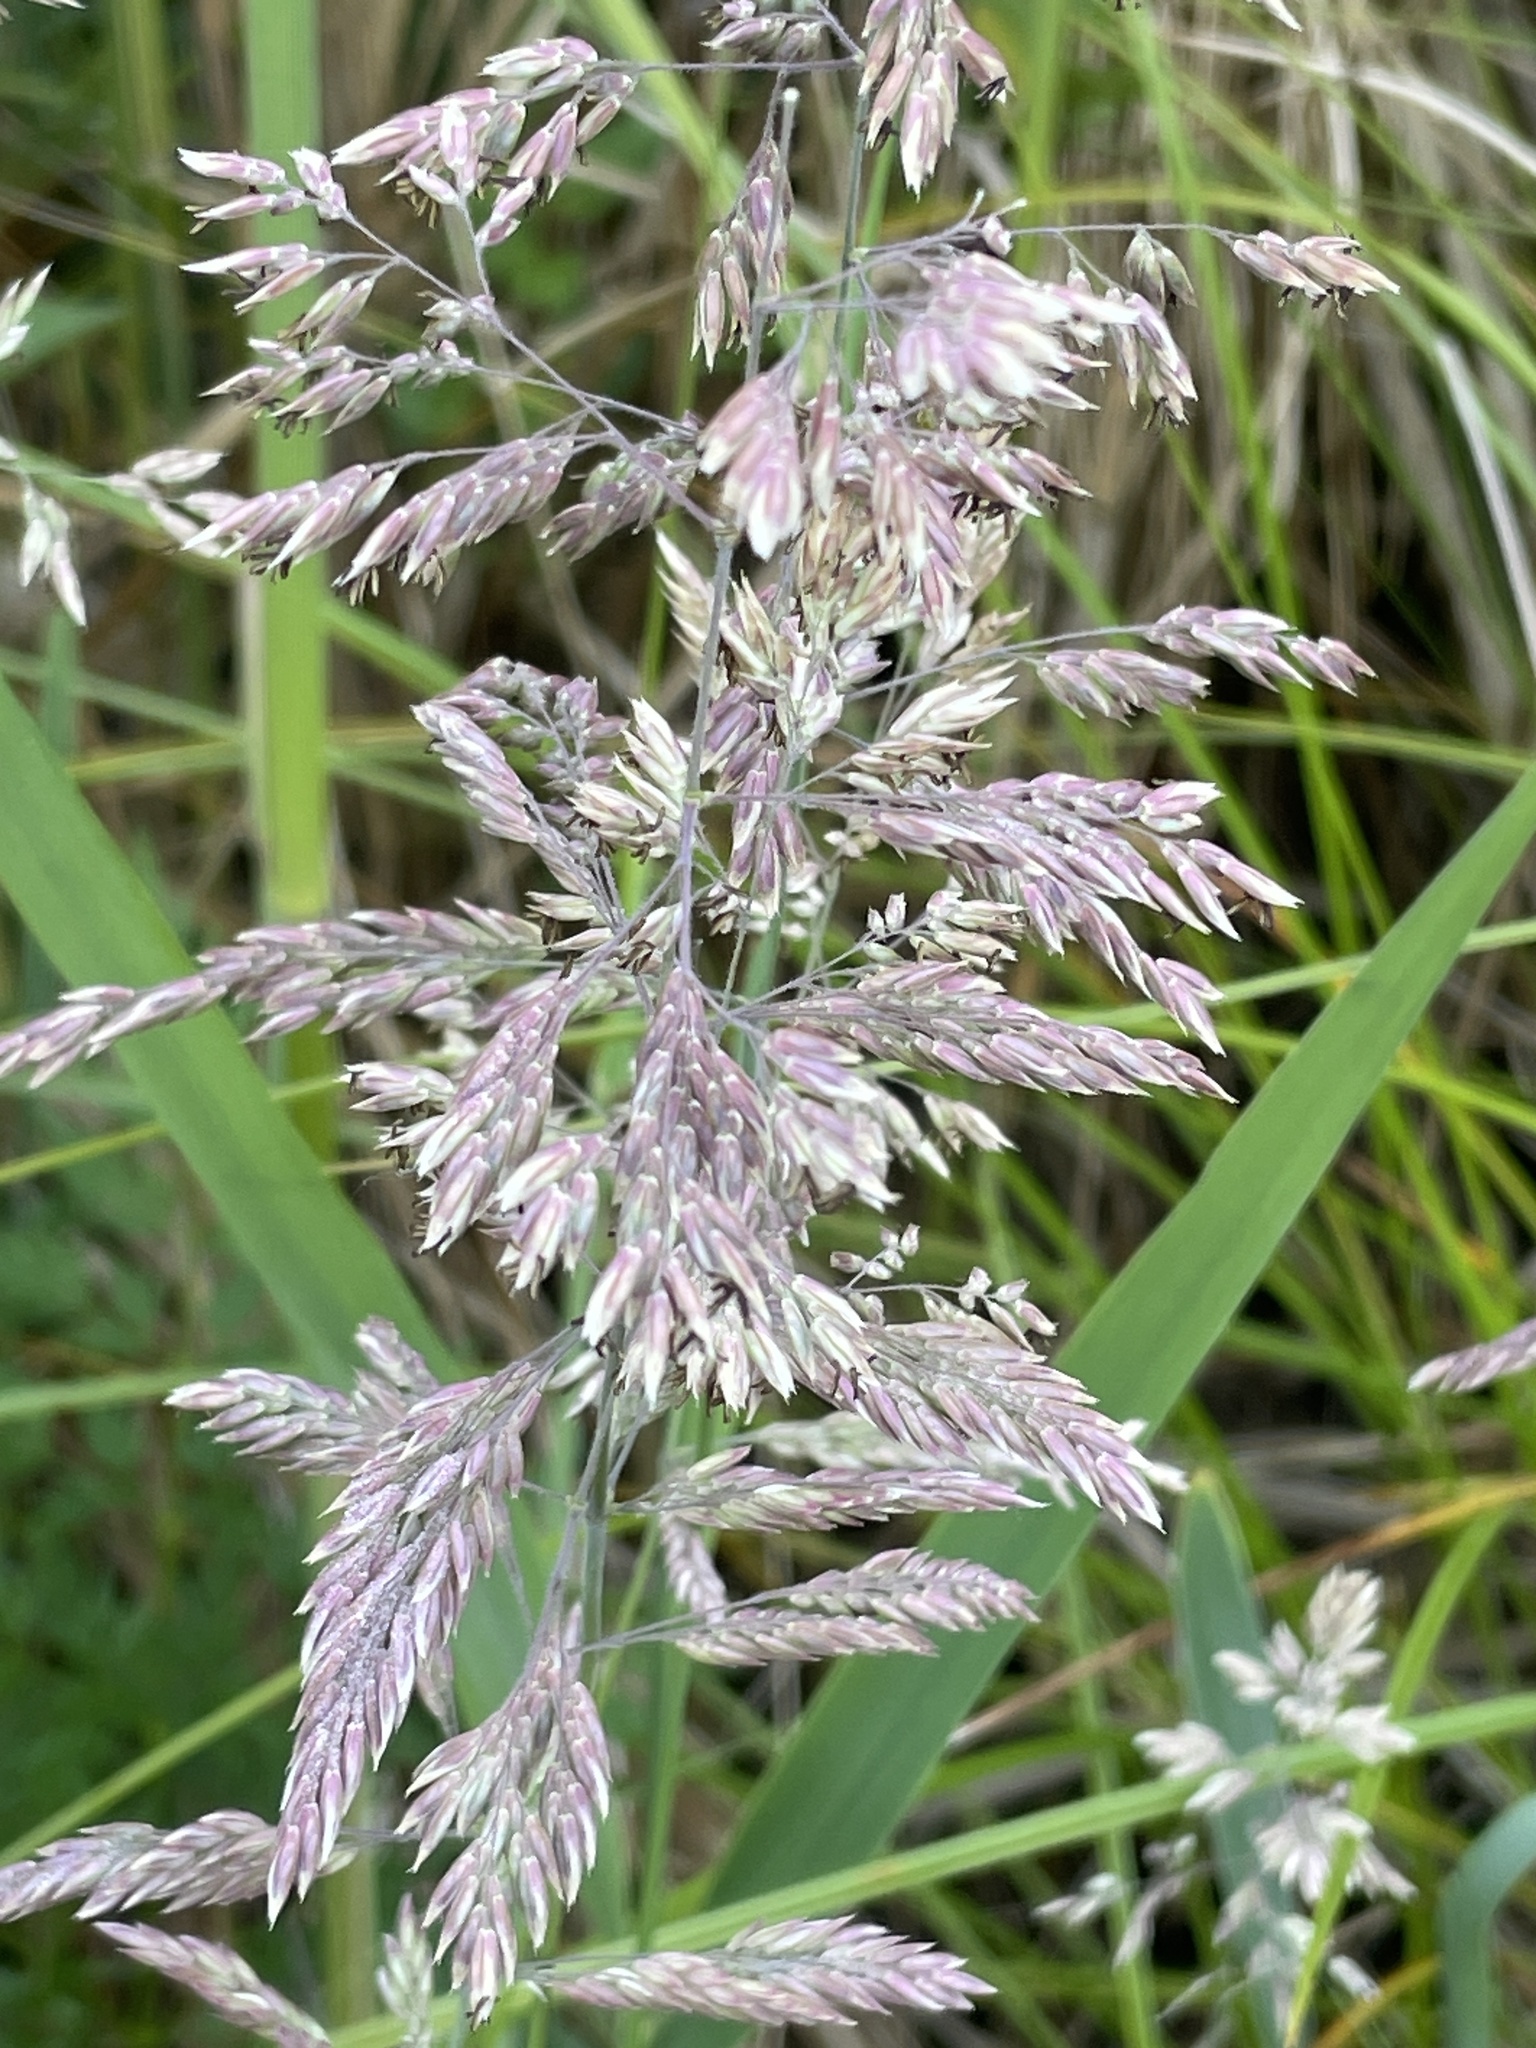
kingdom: Plantae
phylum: Tracheophyta
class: Liliopsida
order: Poales
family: Poaceae
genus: Holcus
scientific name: Holcus lanatus
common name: Yorkshire-fog
